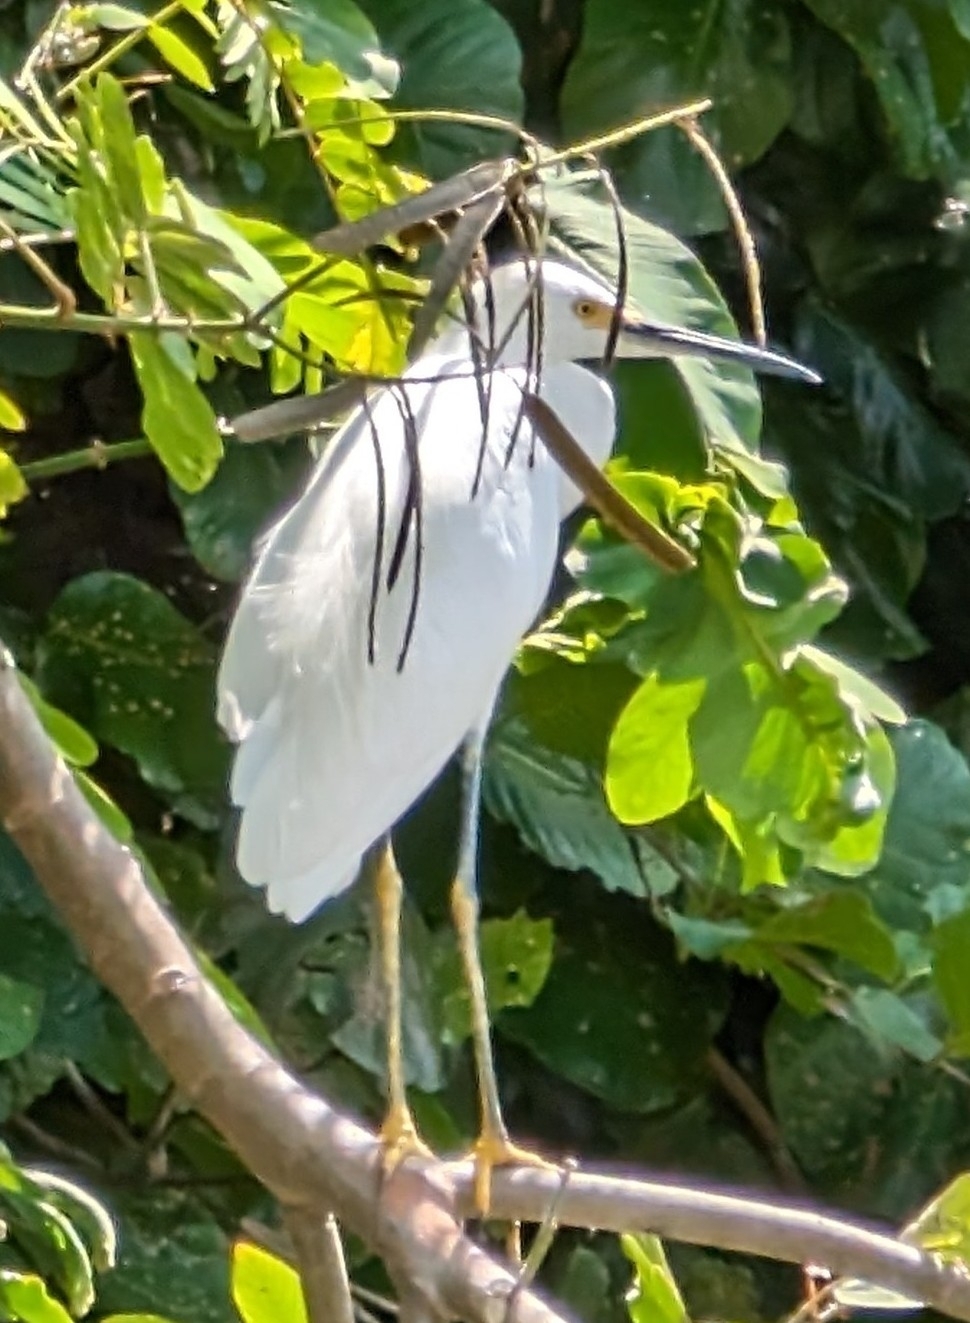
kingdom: Animalia
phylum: Chordata
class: Aves
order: Pelecaniformes
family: Ardeidae
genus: Egretta
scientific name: Egretta thula
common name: Snowy egret
